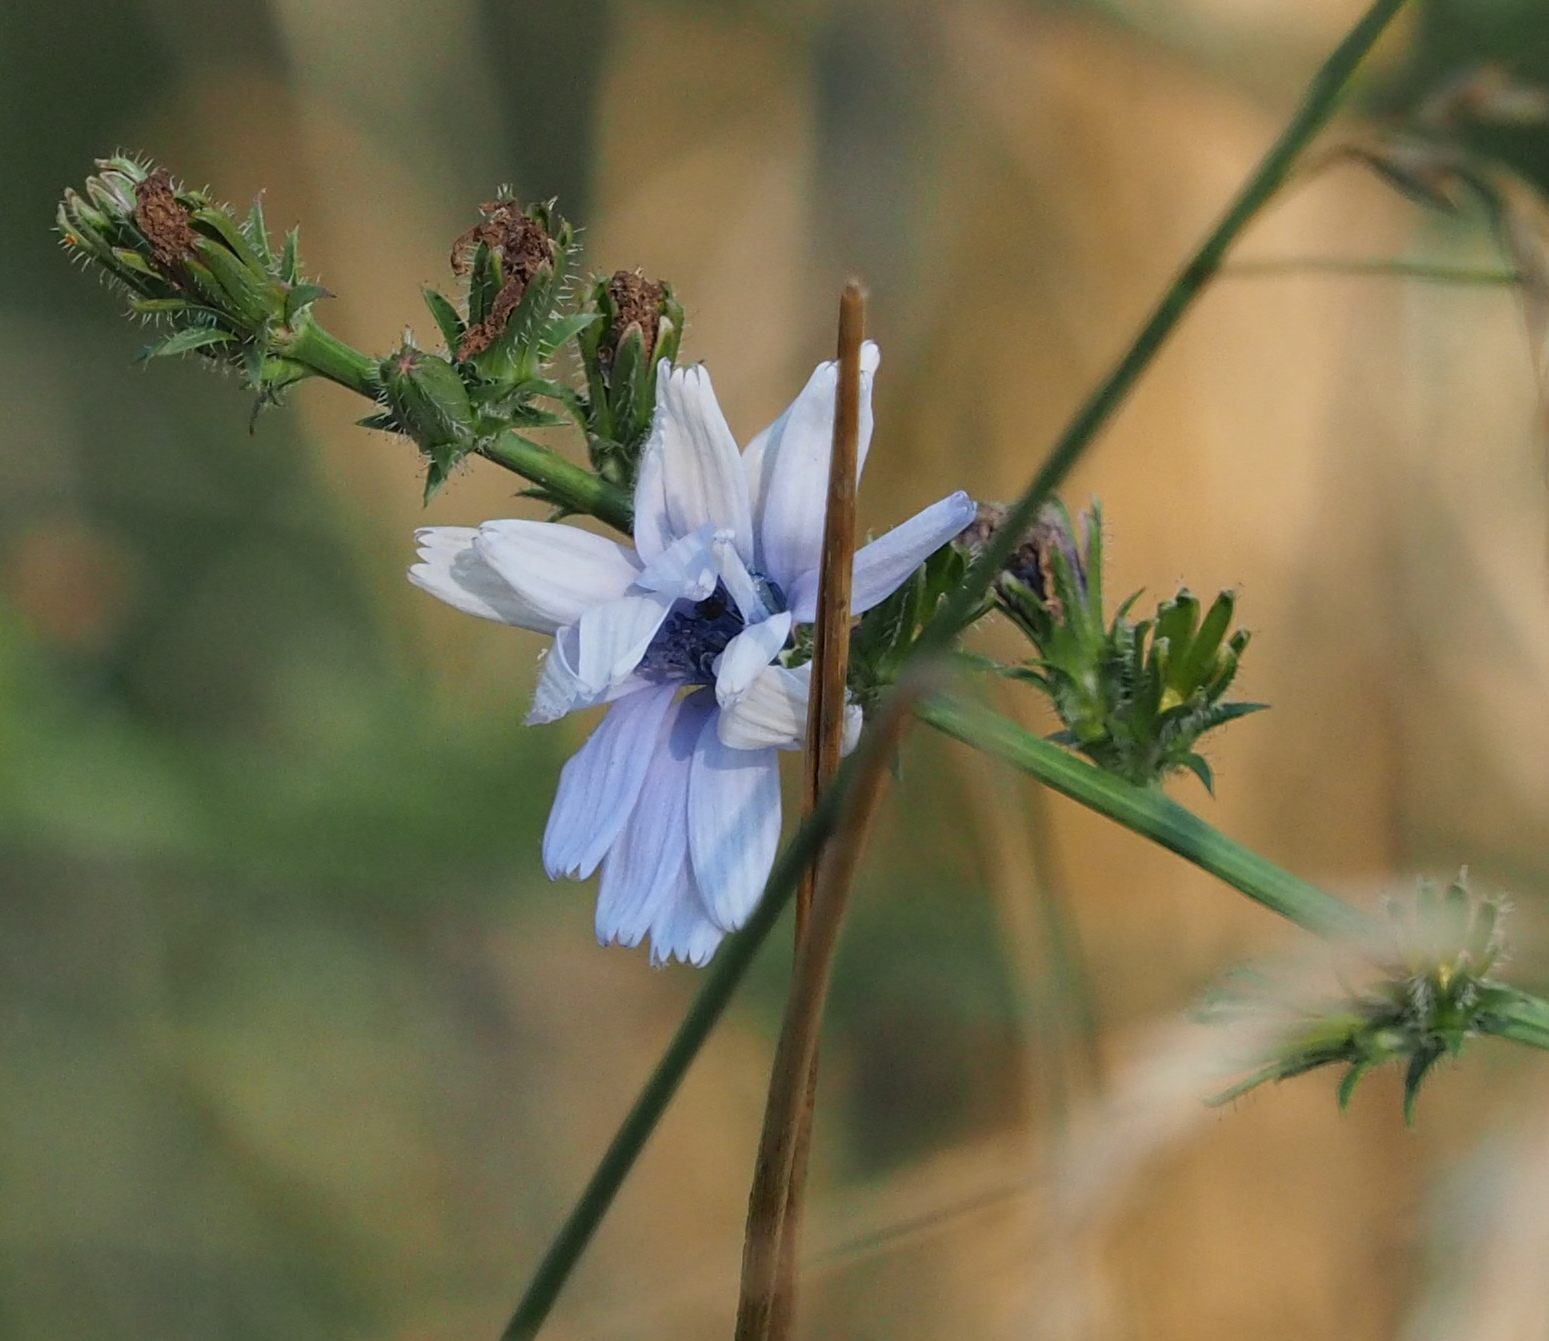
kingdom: Plantae
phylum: Tracheophyta
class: Magnoliopsida
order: Asterales
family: Asteraceae
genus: Cichorium
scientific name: Cichorium intybus
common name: Chicory
